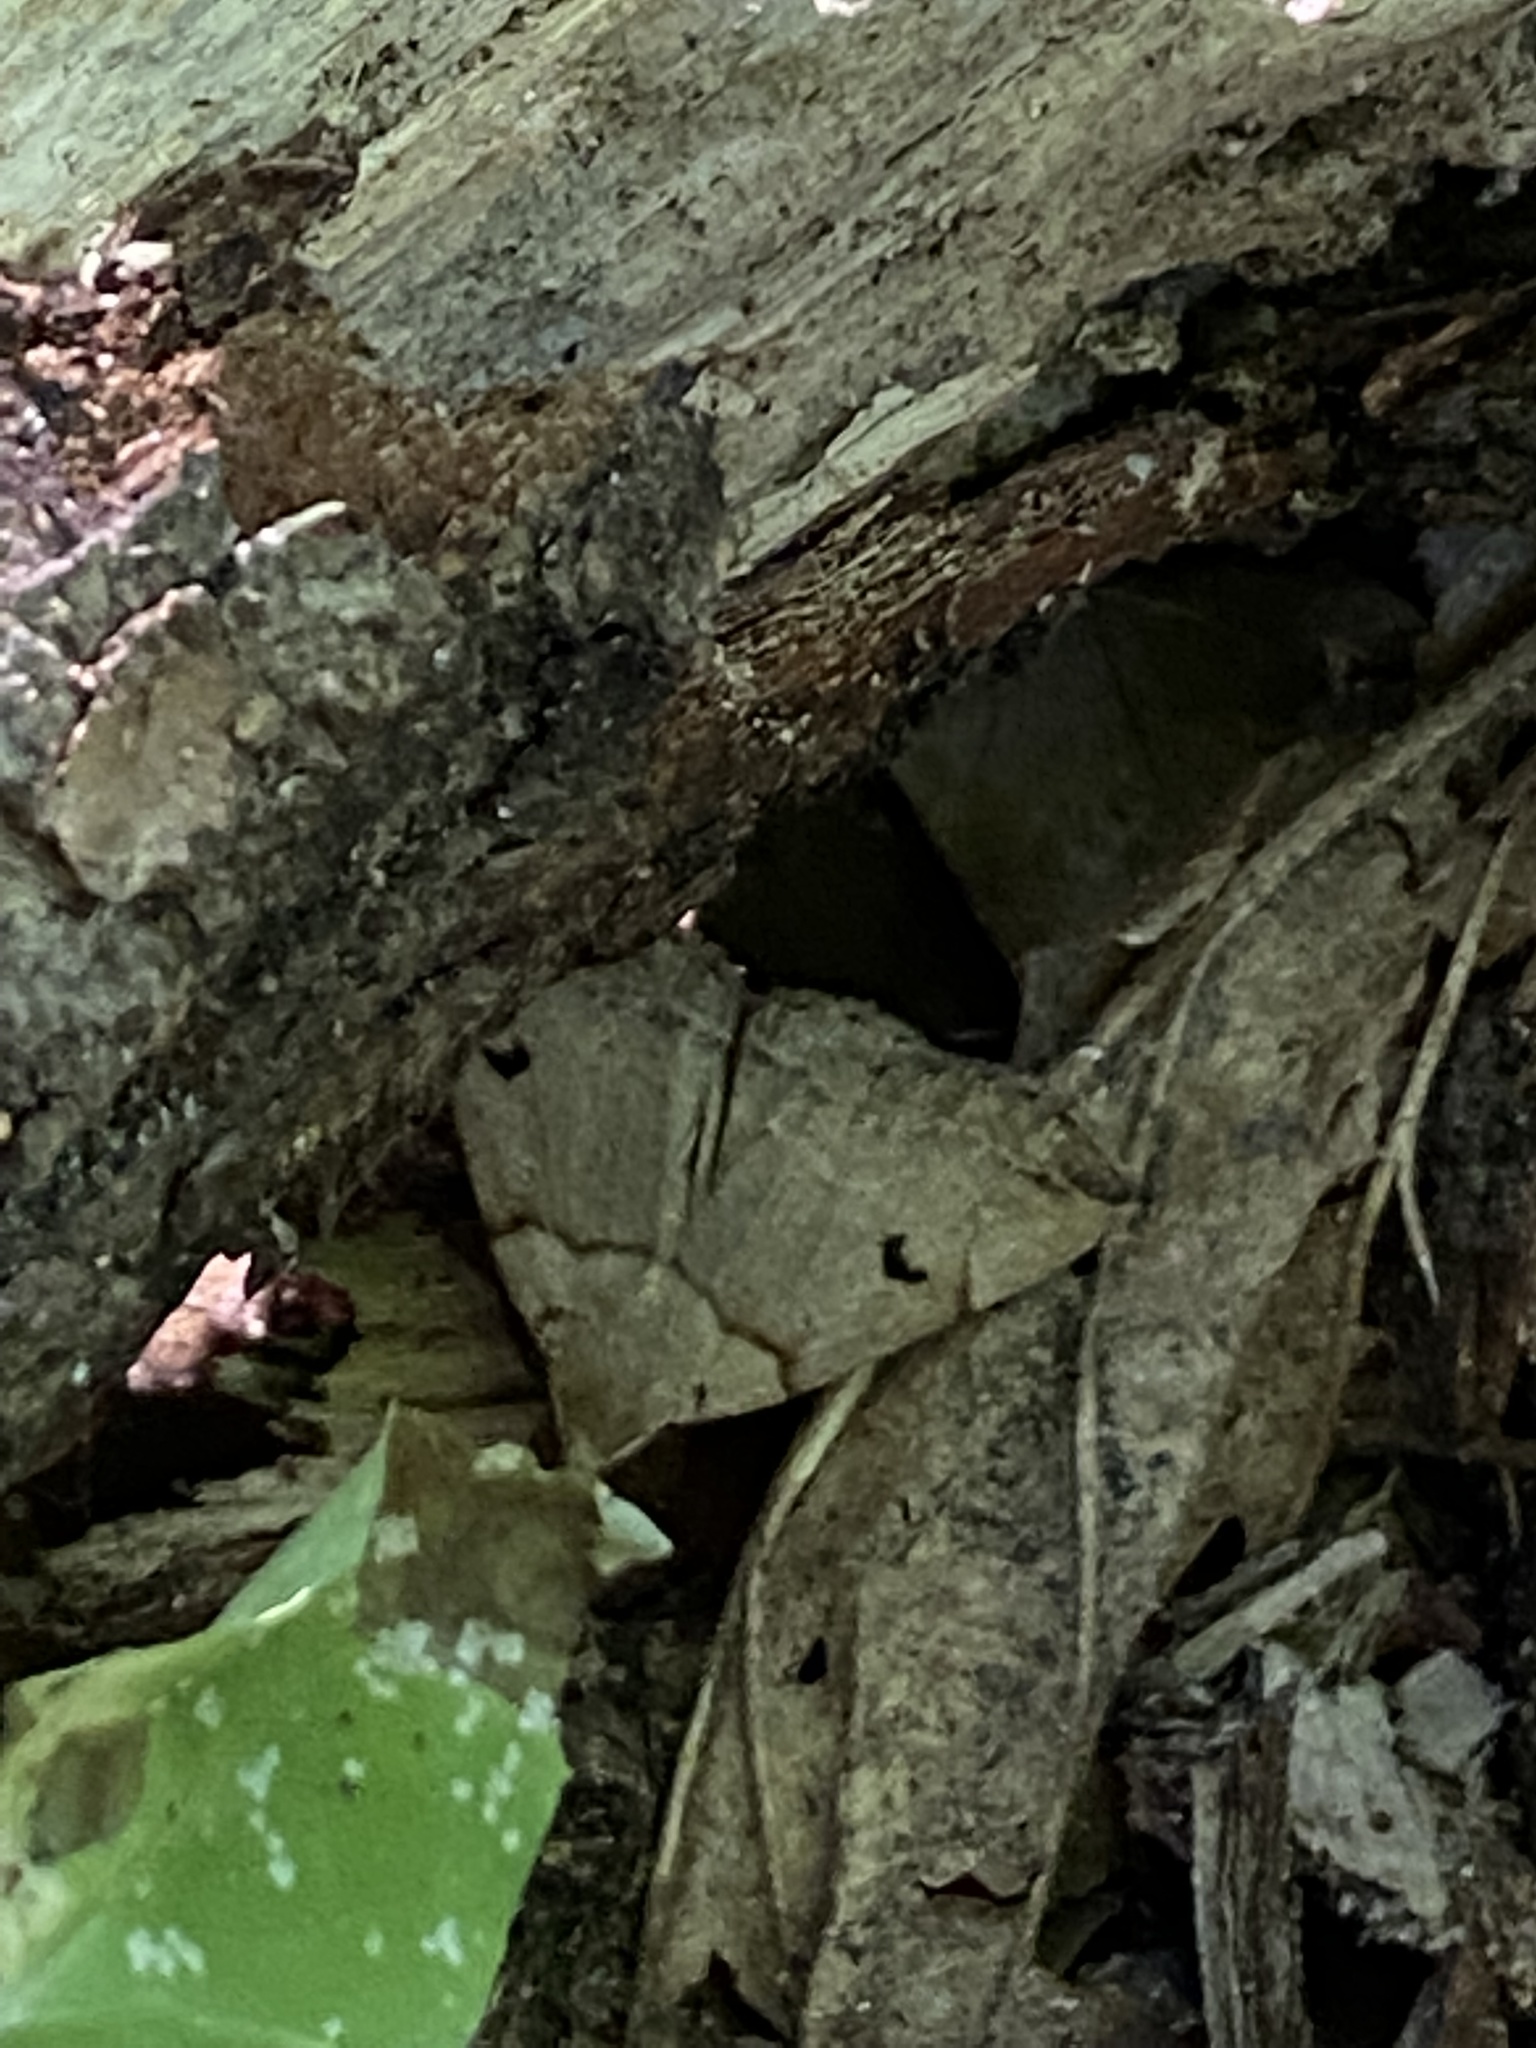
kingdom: Animalia
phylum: Arthropoda
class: Insecta
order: Lepidoptera
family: Erebidae
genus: Zanclognatha
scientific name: Zanclognatha laevigata
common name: Variable fan-foot
